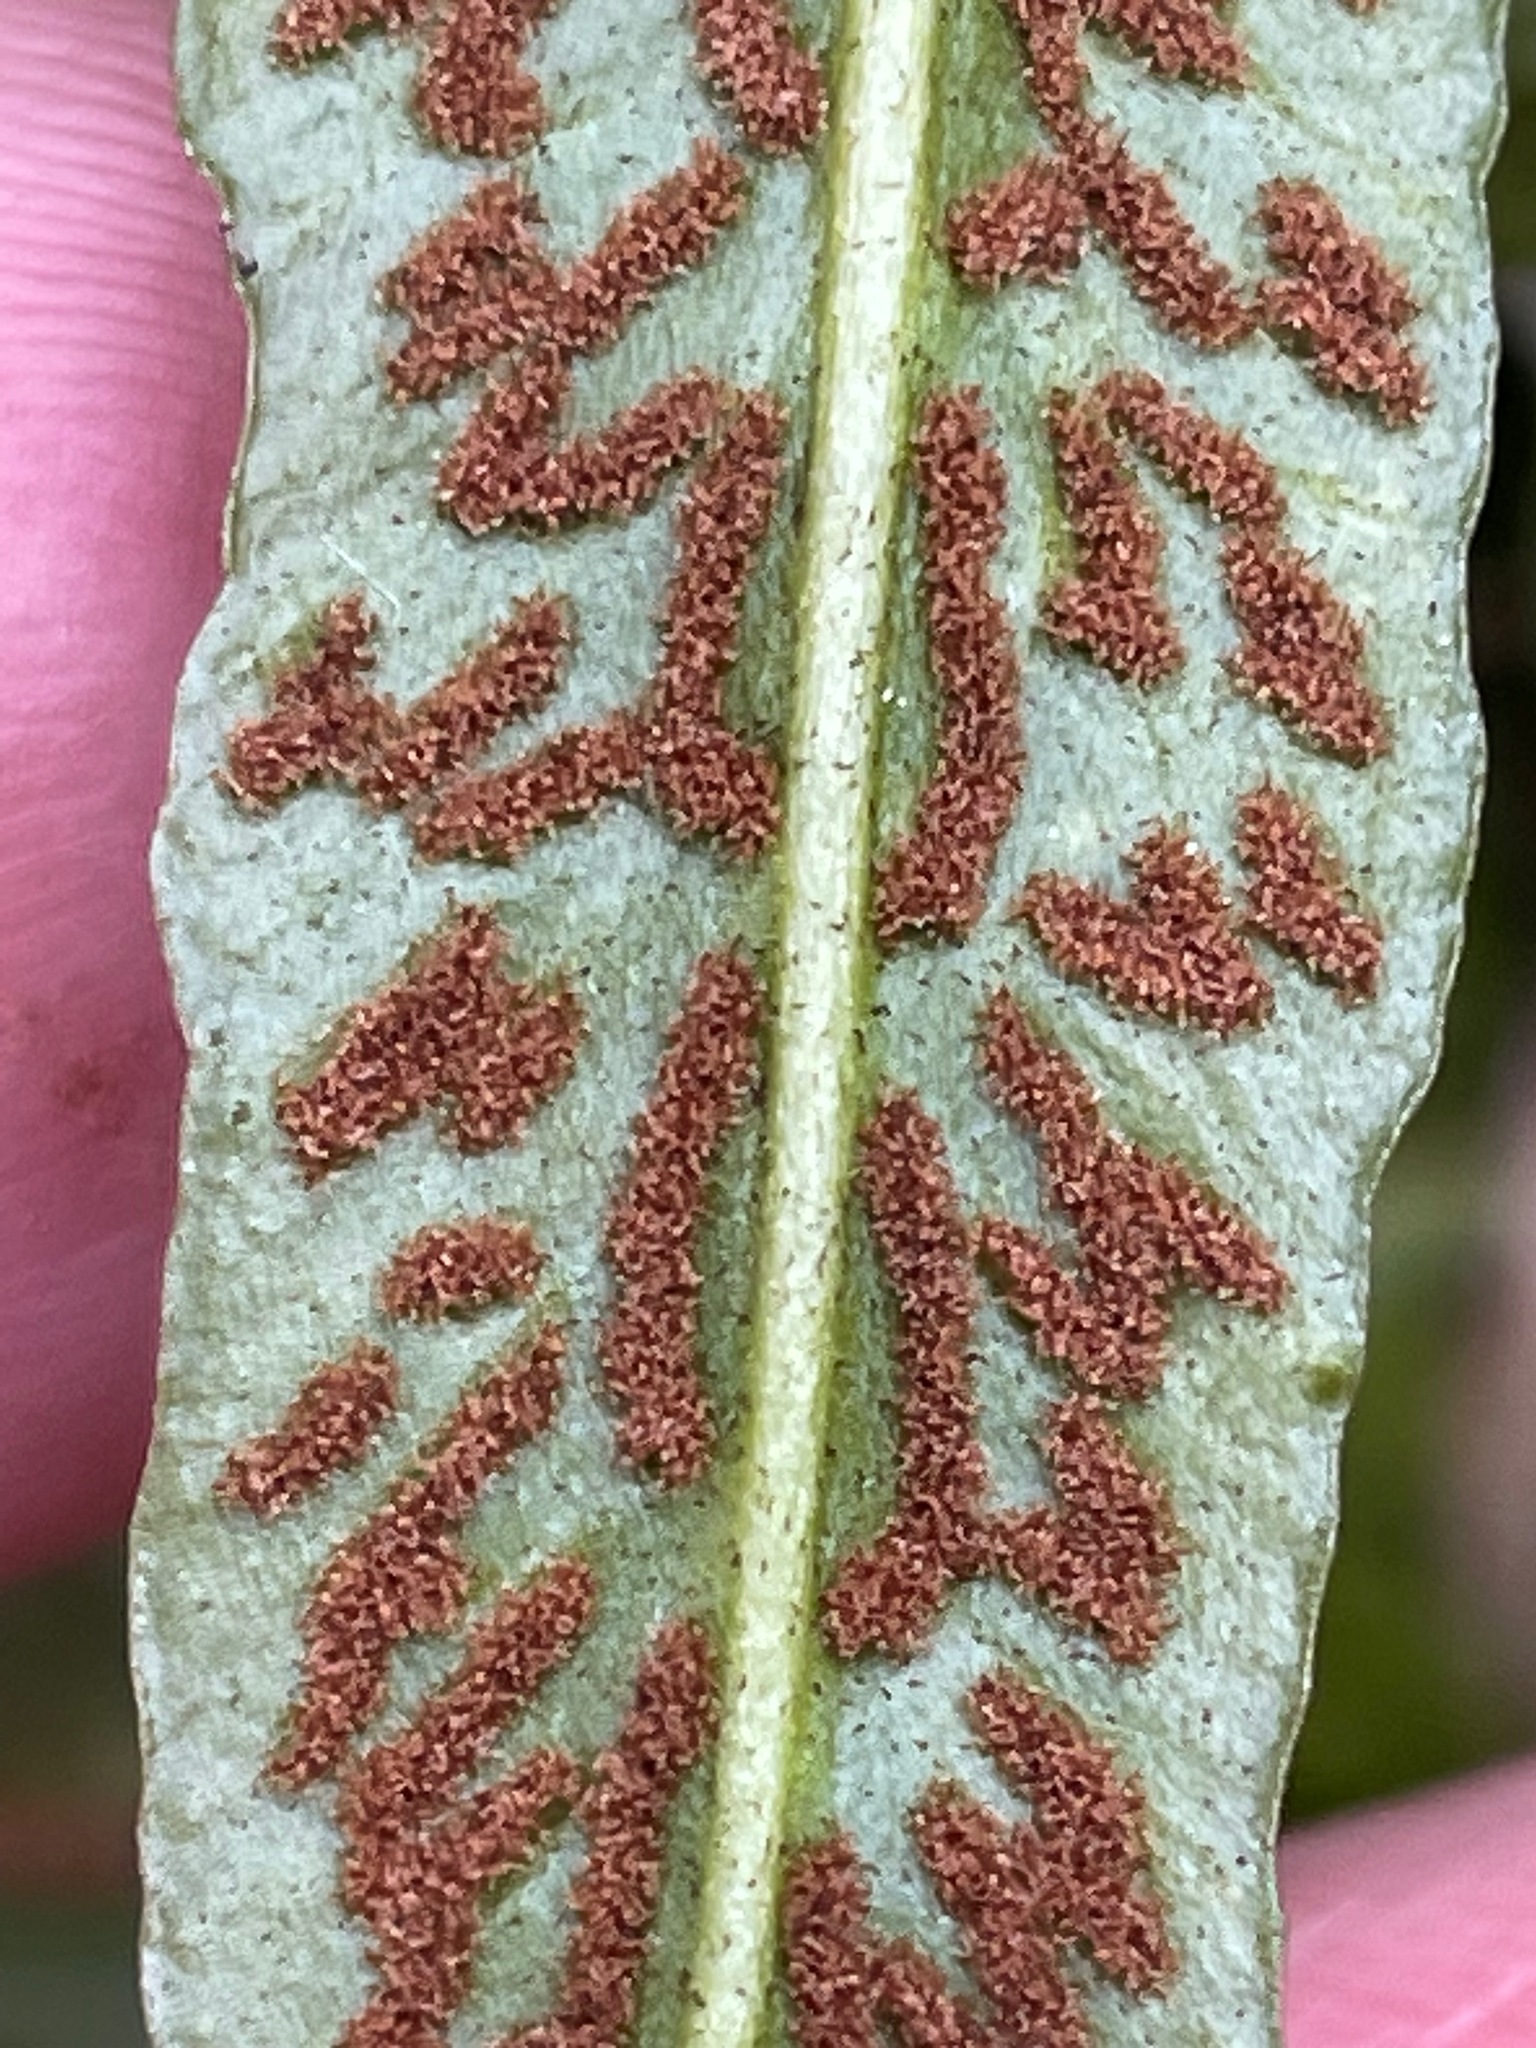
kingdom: Plantae
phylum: Tracheophyta
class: Polypodiopsida
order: Polypodiales
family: Aspleniaceae
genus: Asplenium
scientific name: Asplenium rhizophyllum
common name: Walking fern
